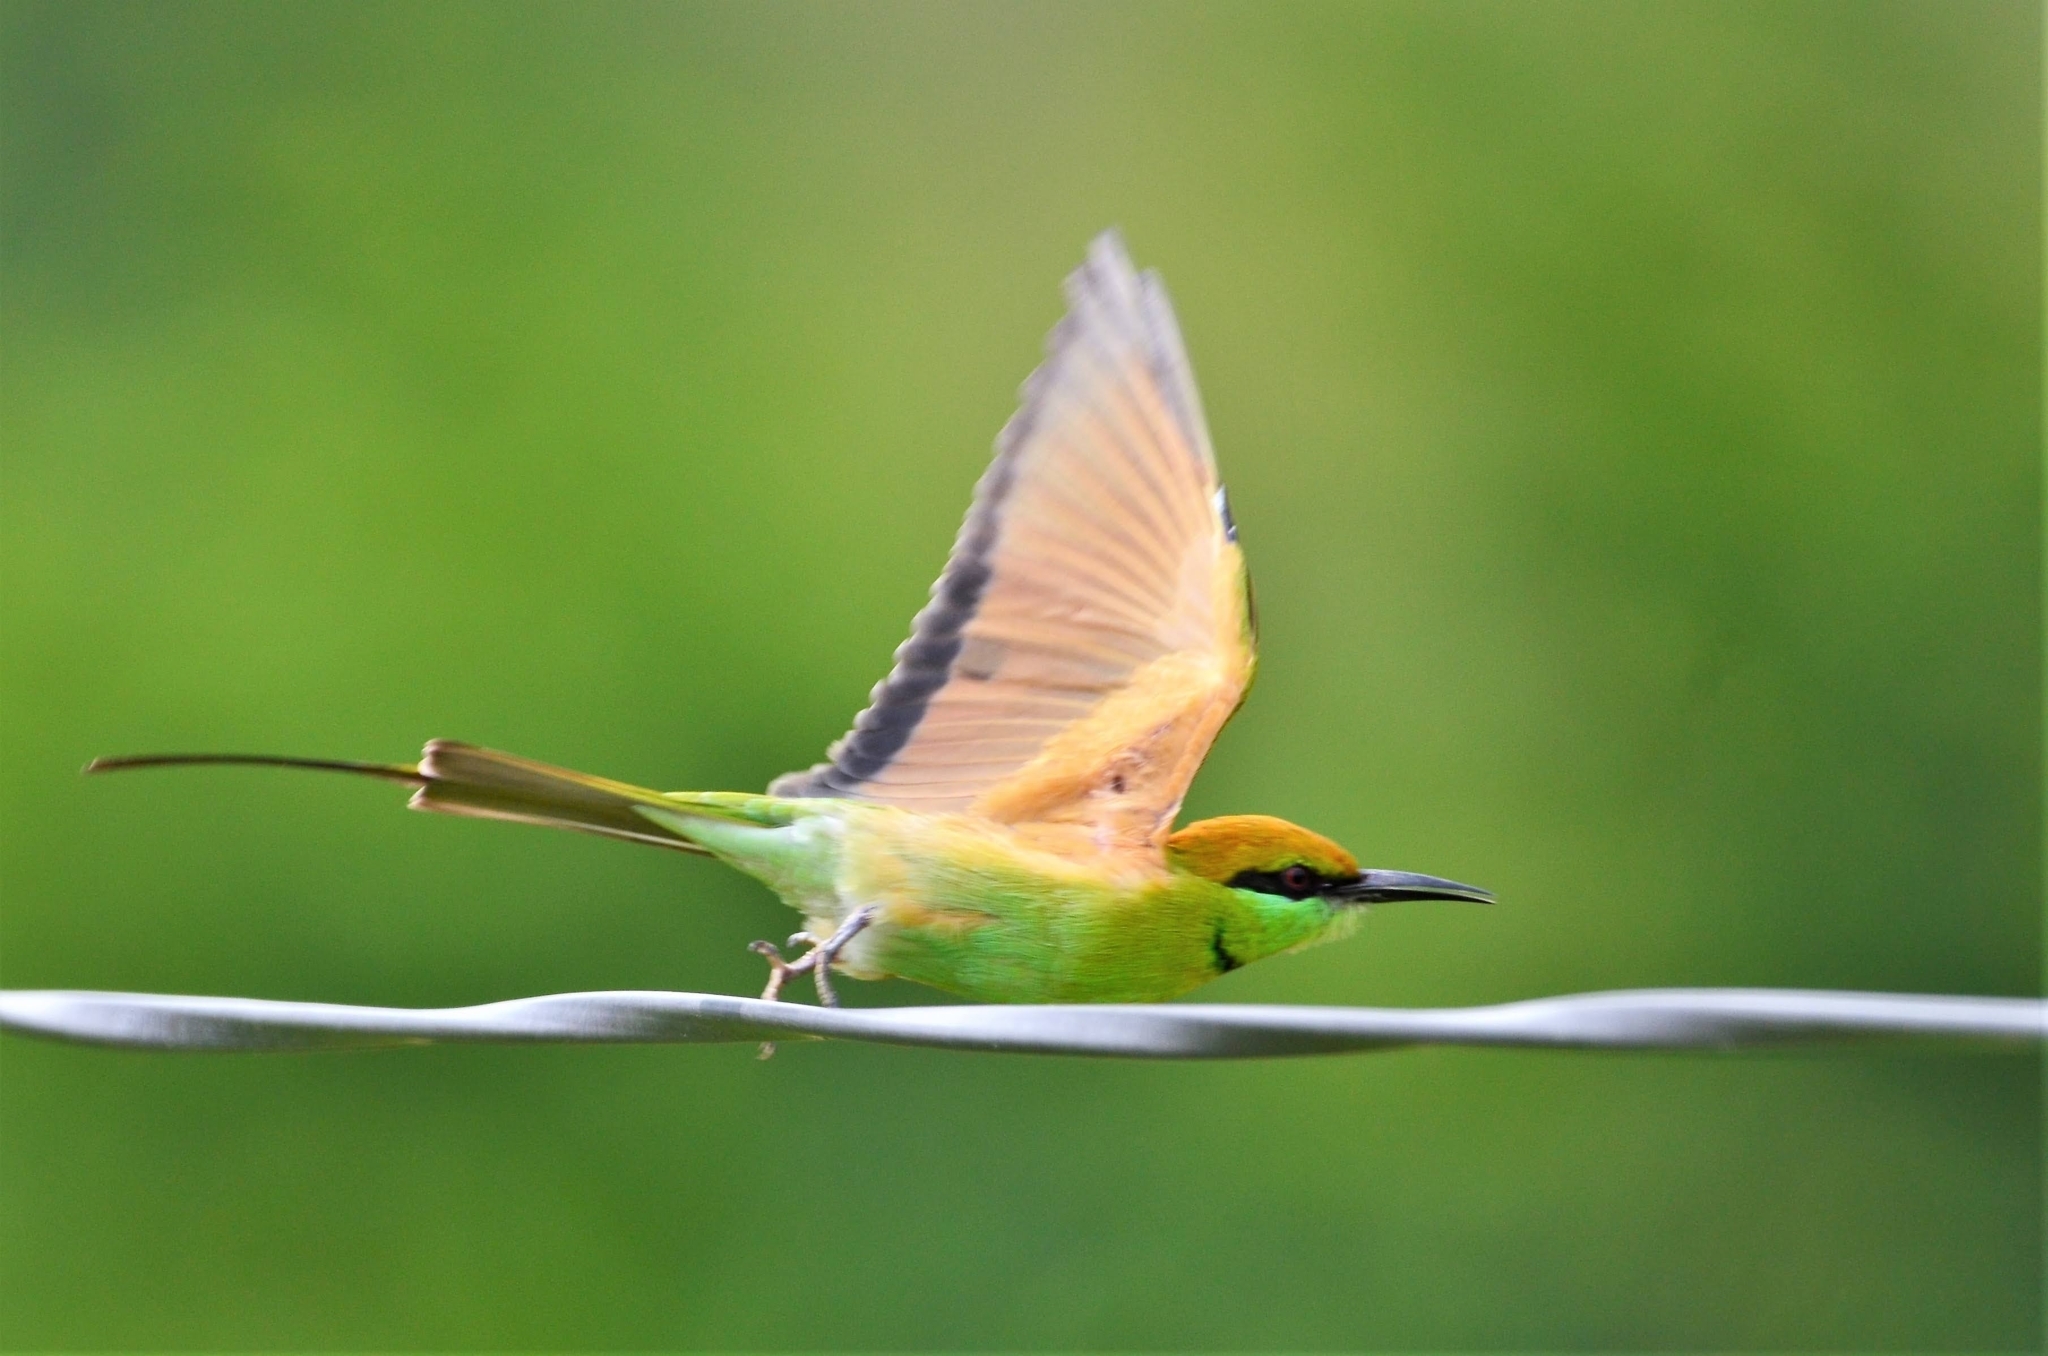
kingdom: Animalia
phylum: Chordata
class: Aves
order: Coraciiformes
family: Meropidae
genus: Merops
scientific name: Merops orientalis
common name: Green bee-eater
